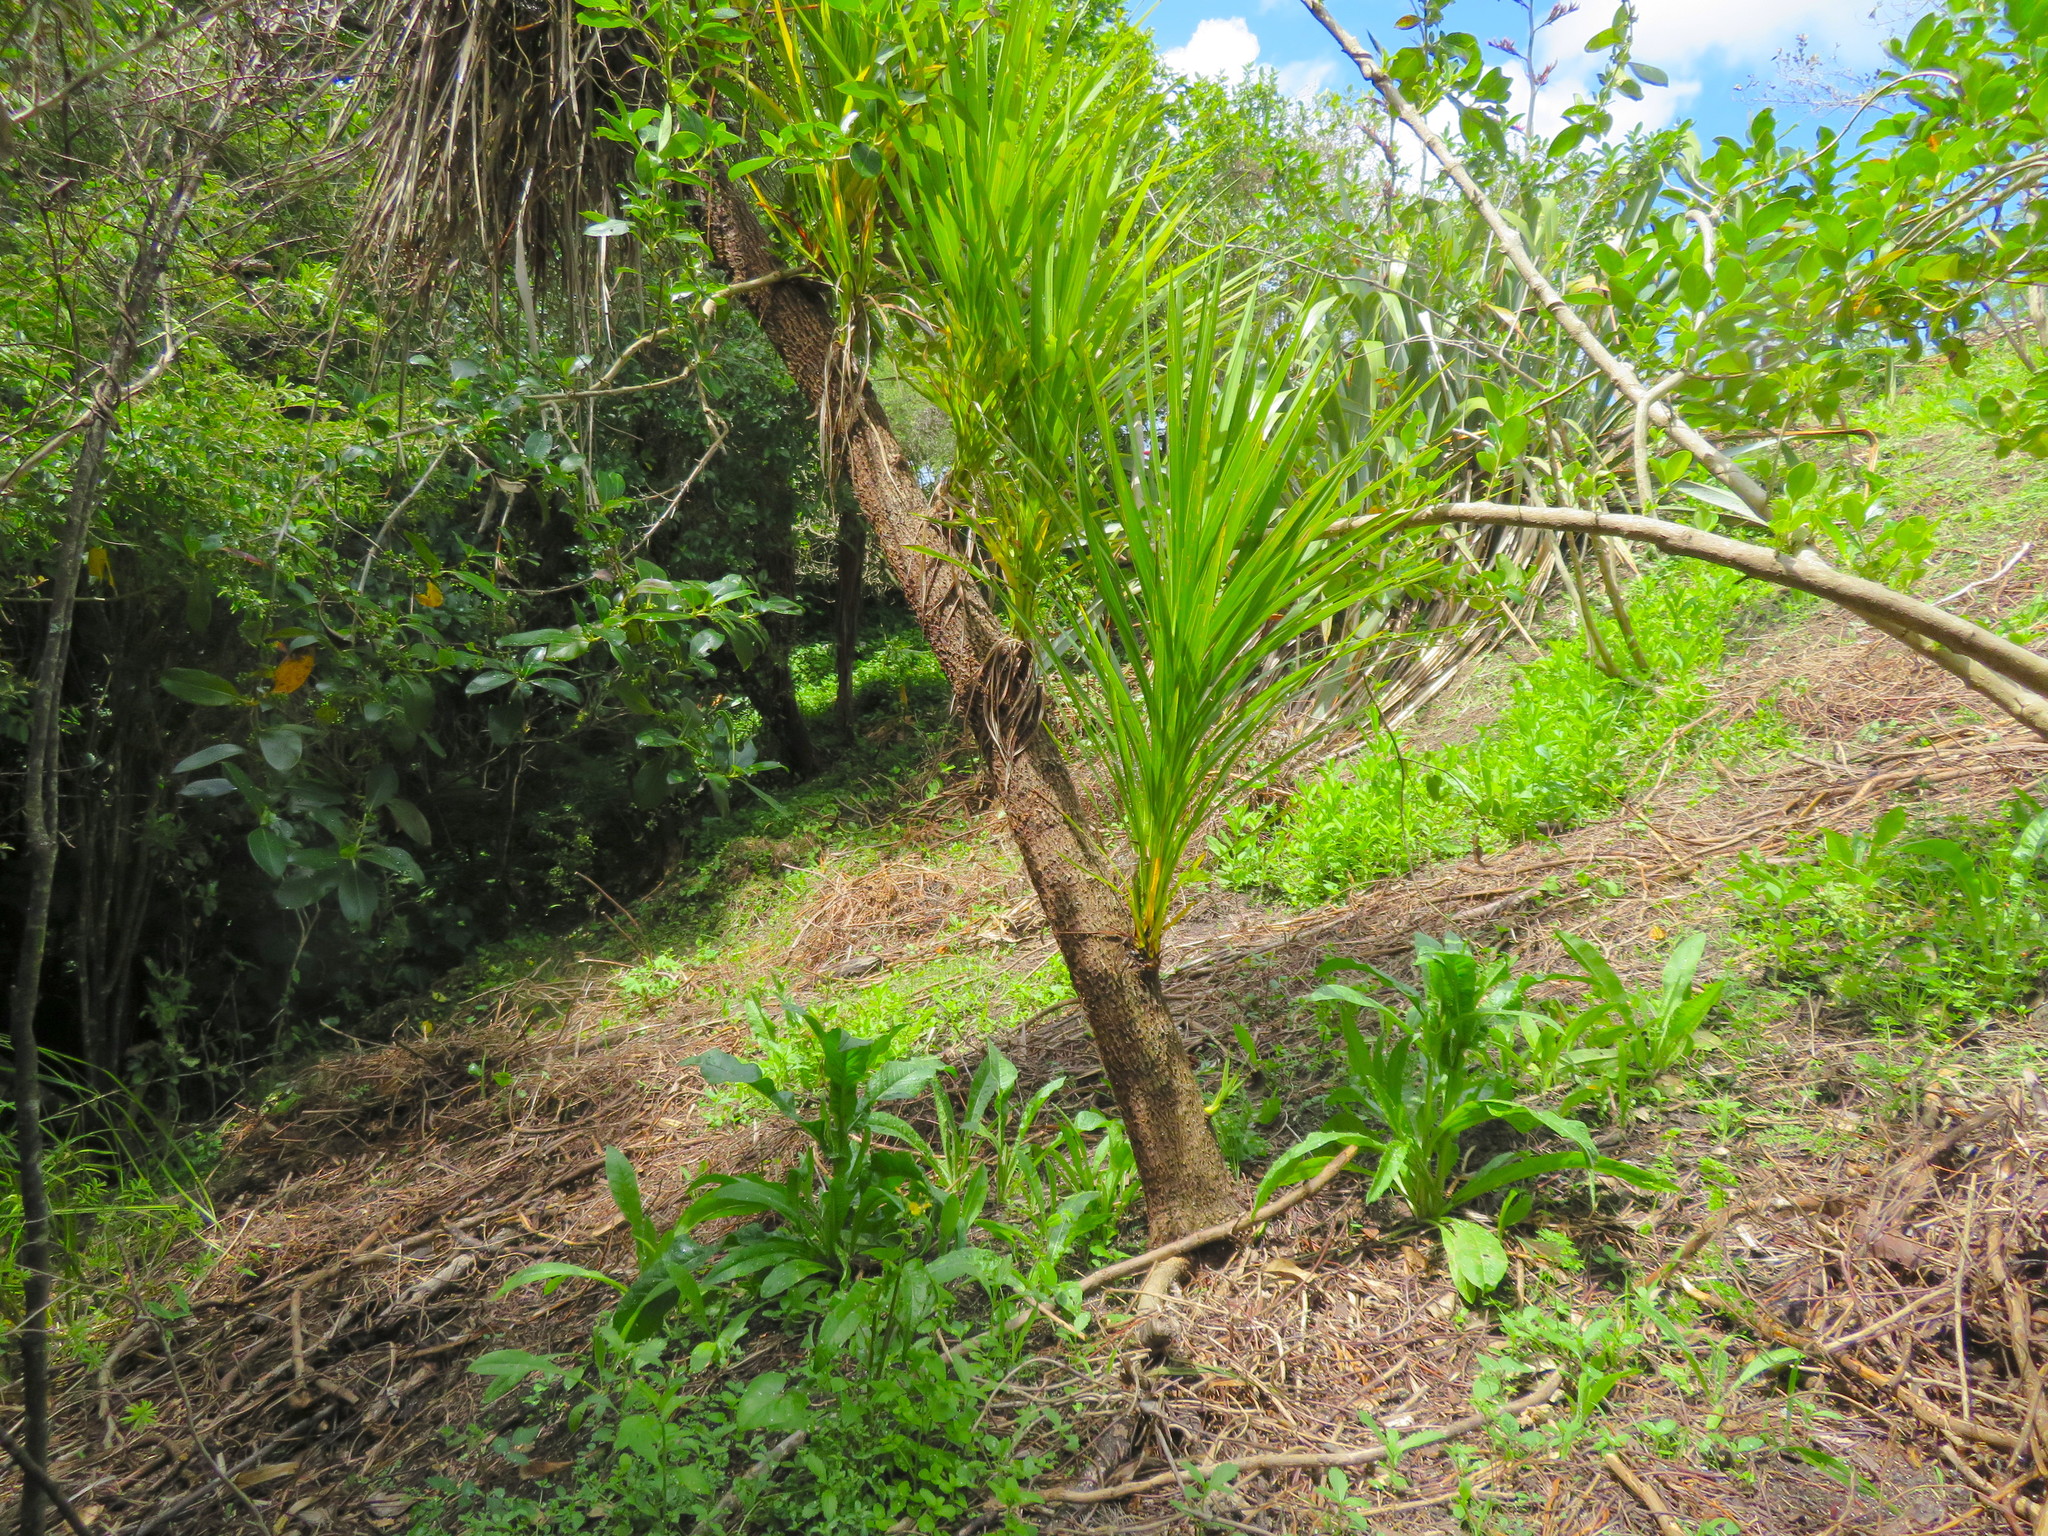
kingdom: Plantae
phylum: Tracheophyta
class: Liliopsida
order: Asparagales
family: Asparagaceae
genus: Cordyline
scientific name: Cordyline australis
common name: Cabbage-palm
